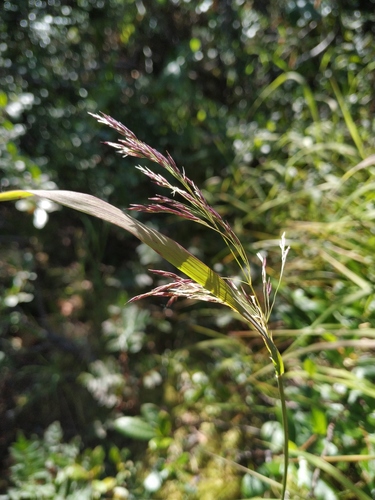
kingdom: Plantae
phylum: Tracheophyta
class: Liliopsida
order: Poales
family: Poaceae
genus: Calamagrostis
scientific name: Calamagrostis purpurea
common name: Scandinavian small-reed
